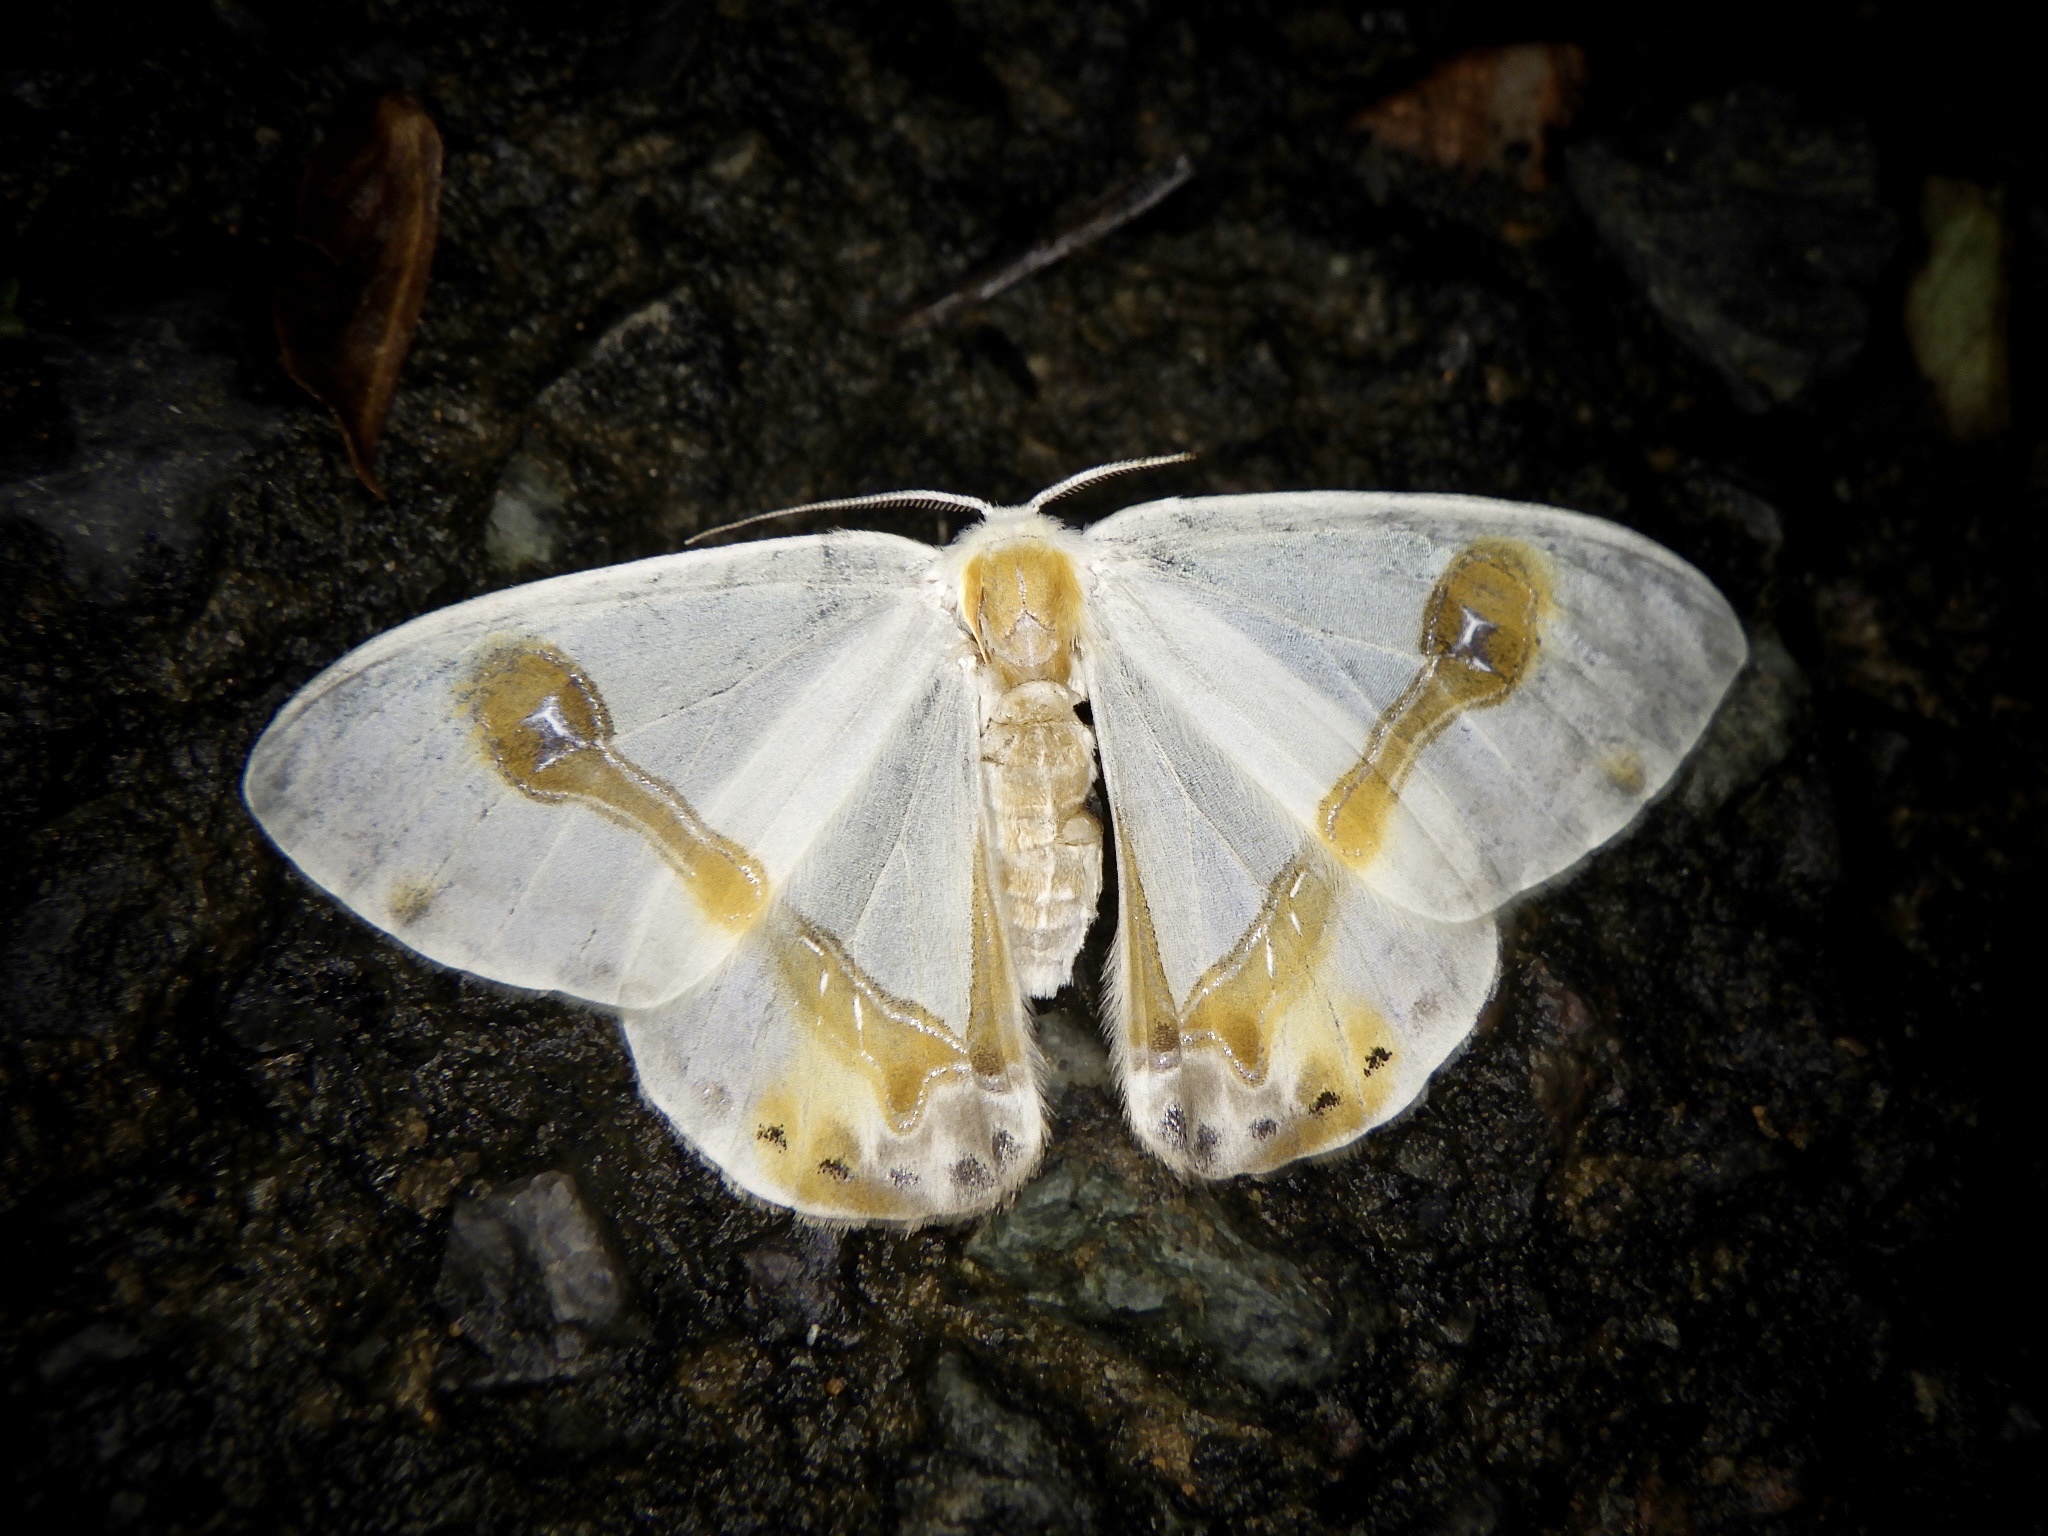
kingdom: Animalia
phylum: Arthropoda
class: Insecta
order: Lepidoptera
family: Drepanidae
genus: Macrocilix
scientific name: Macrocilix mysticata
